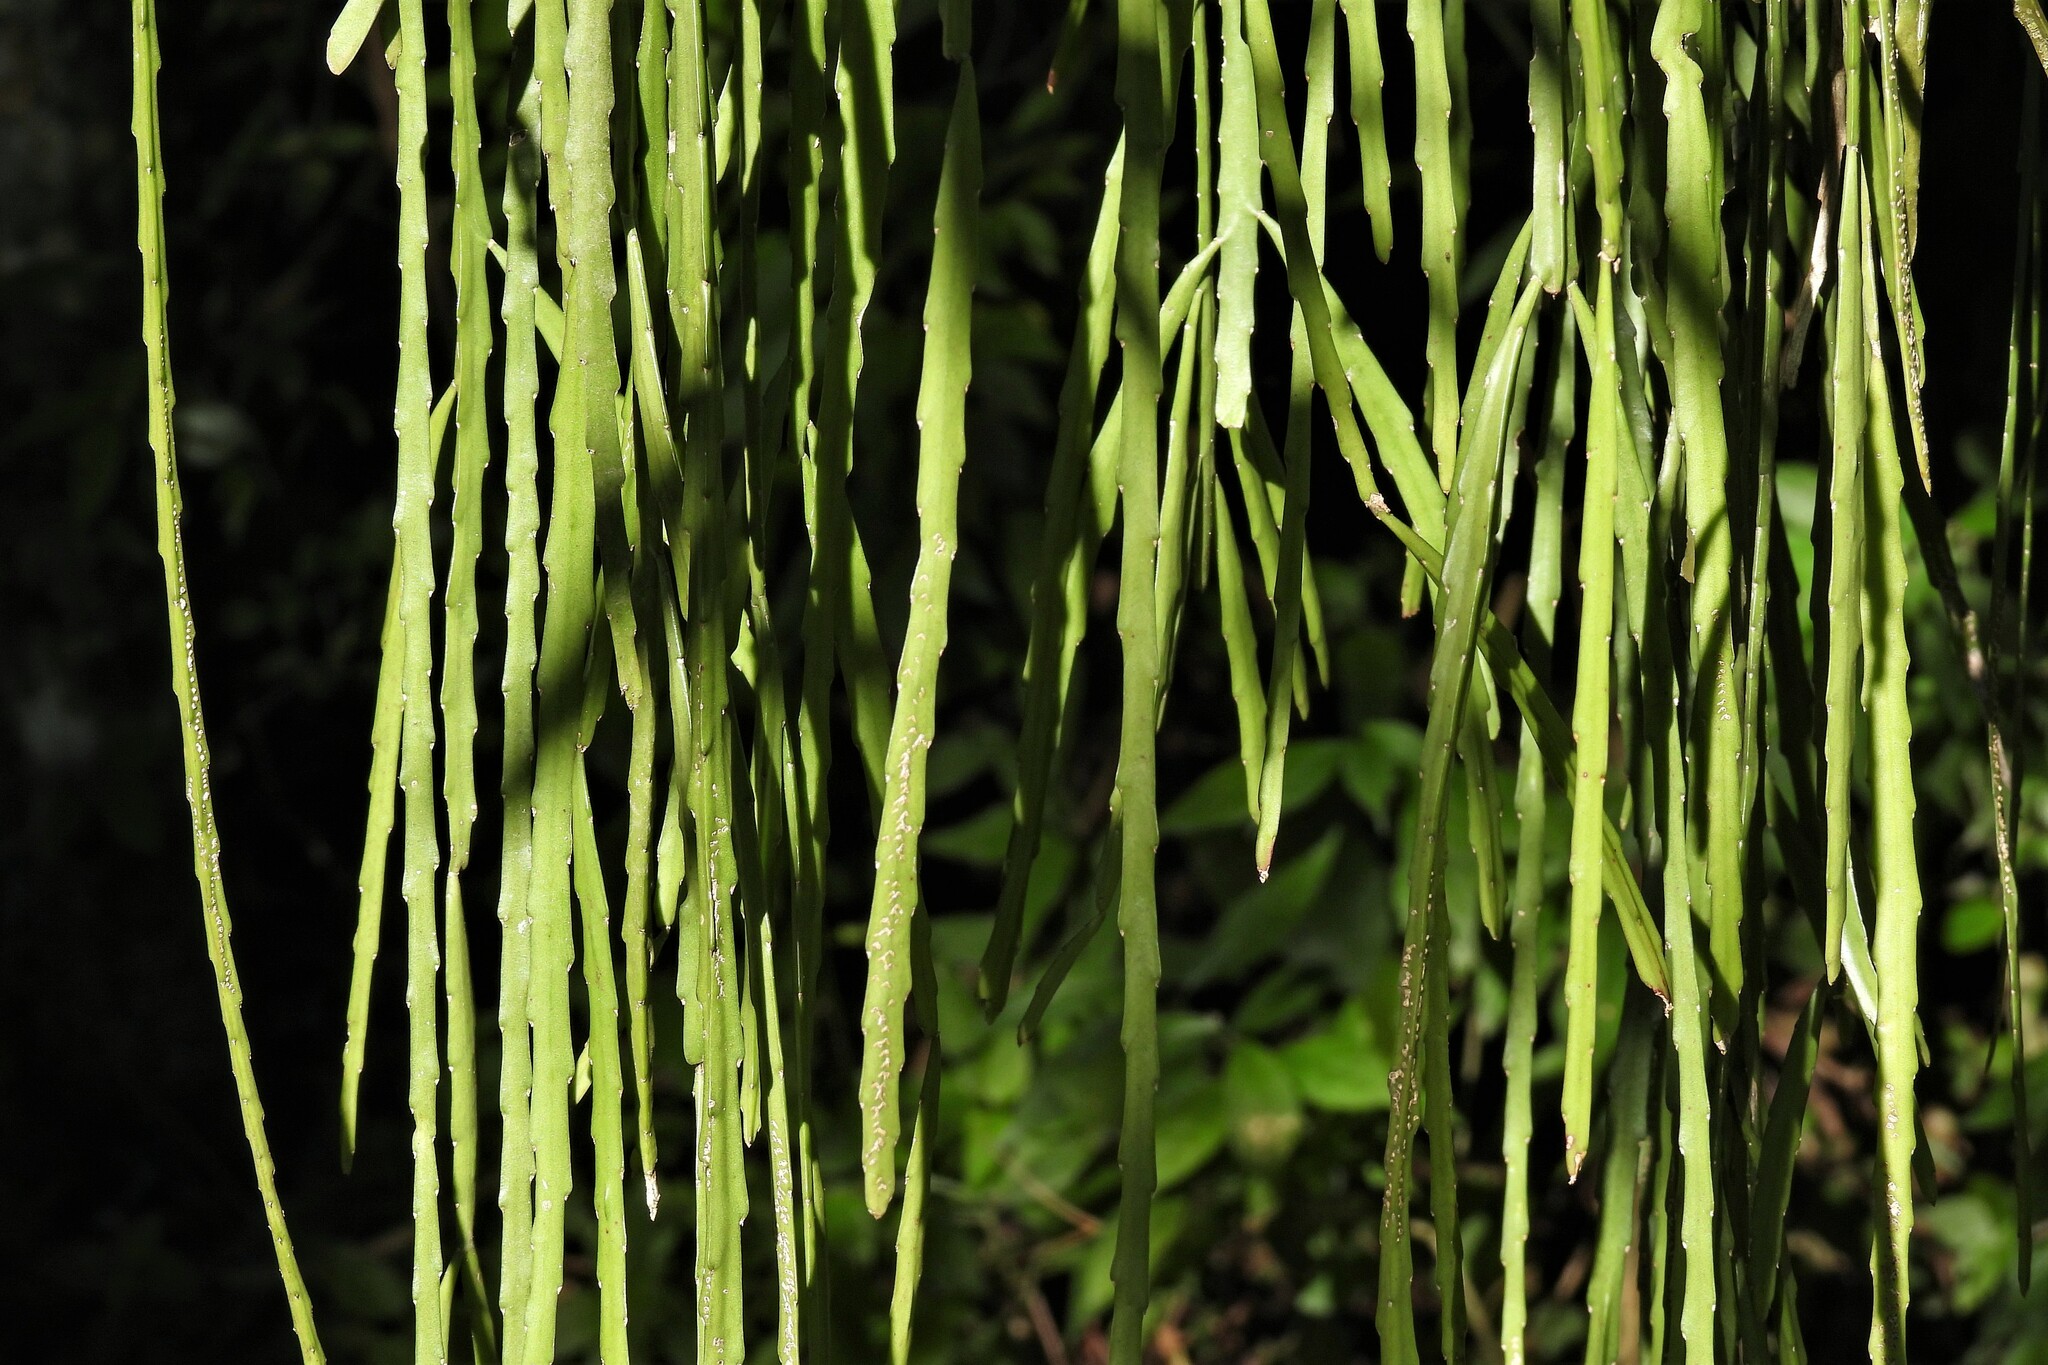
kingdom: Plantae
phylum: Tracheophyta
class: Magnoliopsida
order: Caryophyllales
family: Cactaceae
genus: Lepismium
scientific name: Lepismium warmingianum
